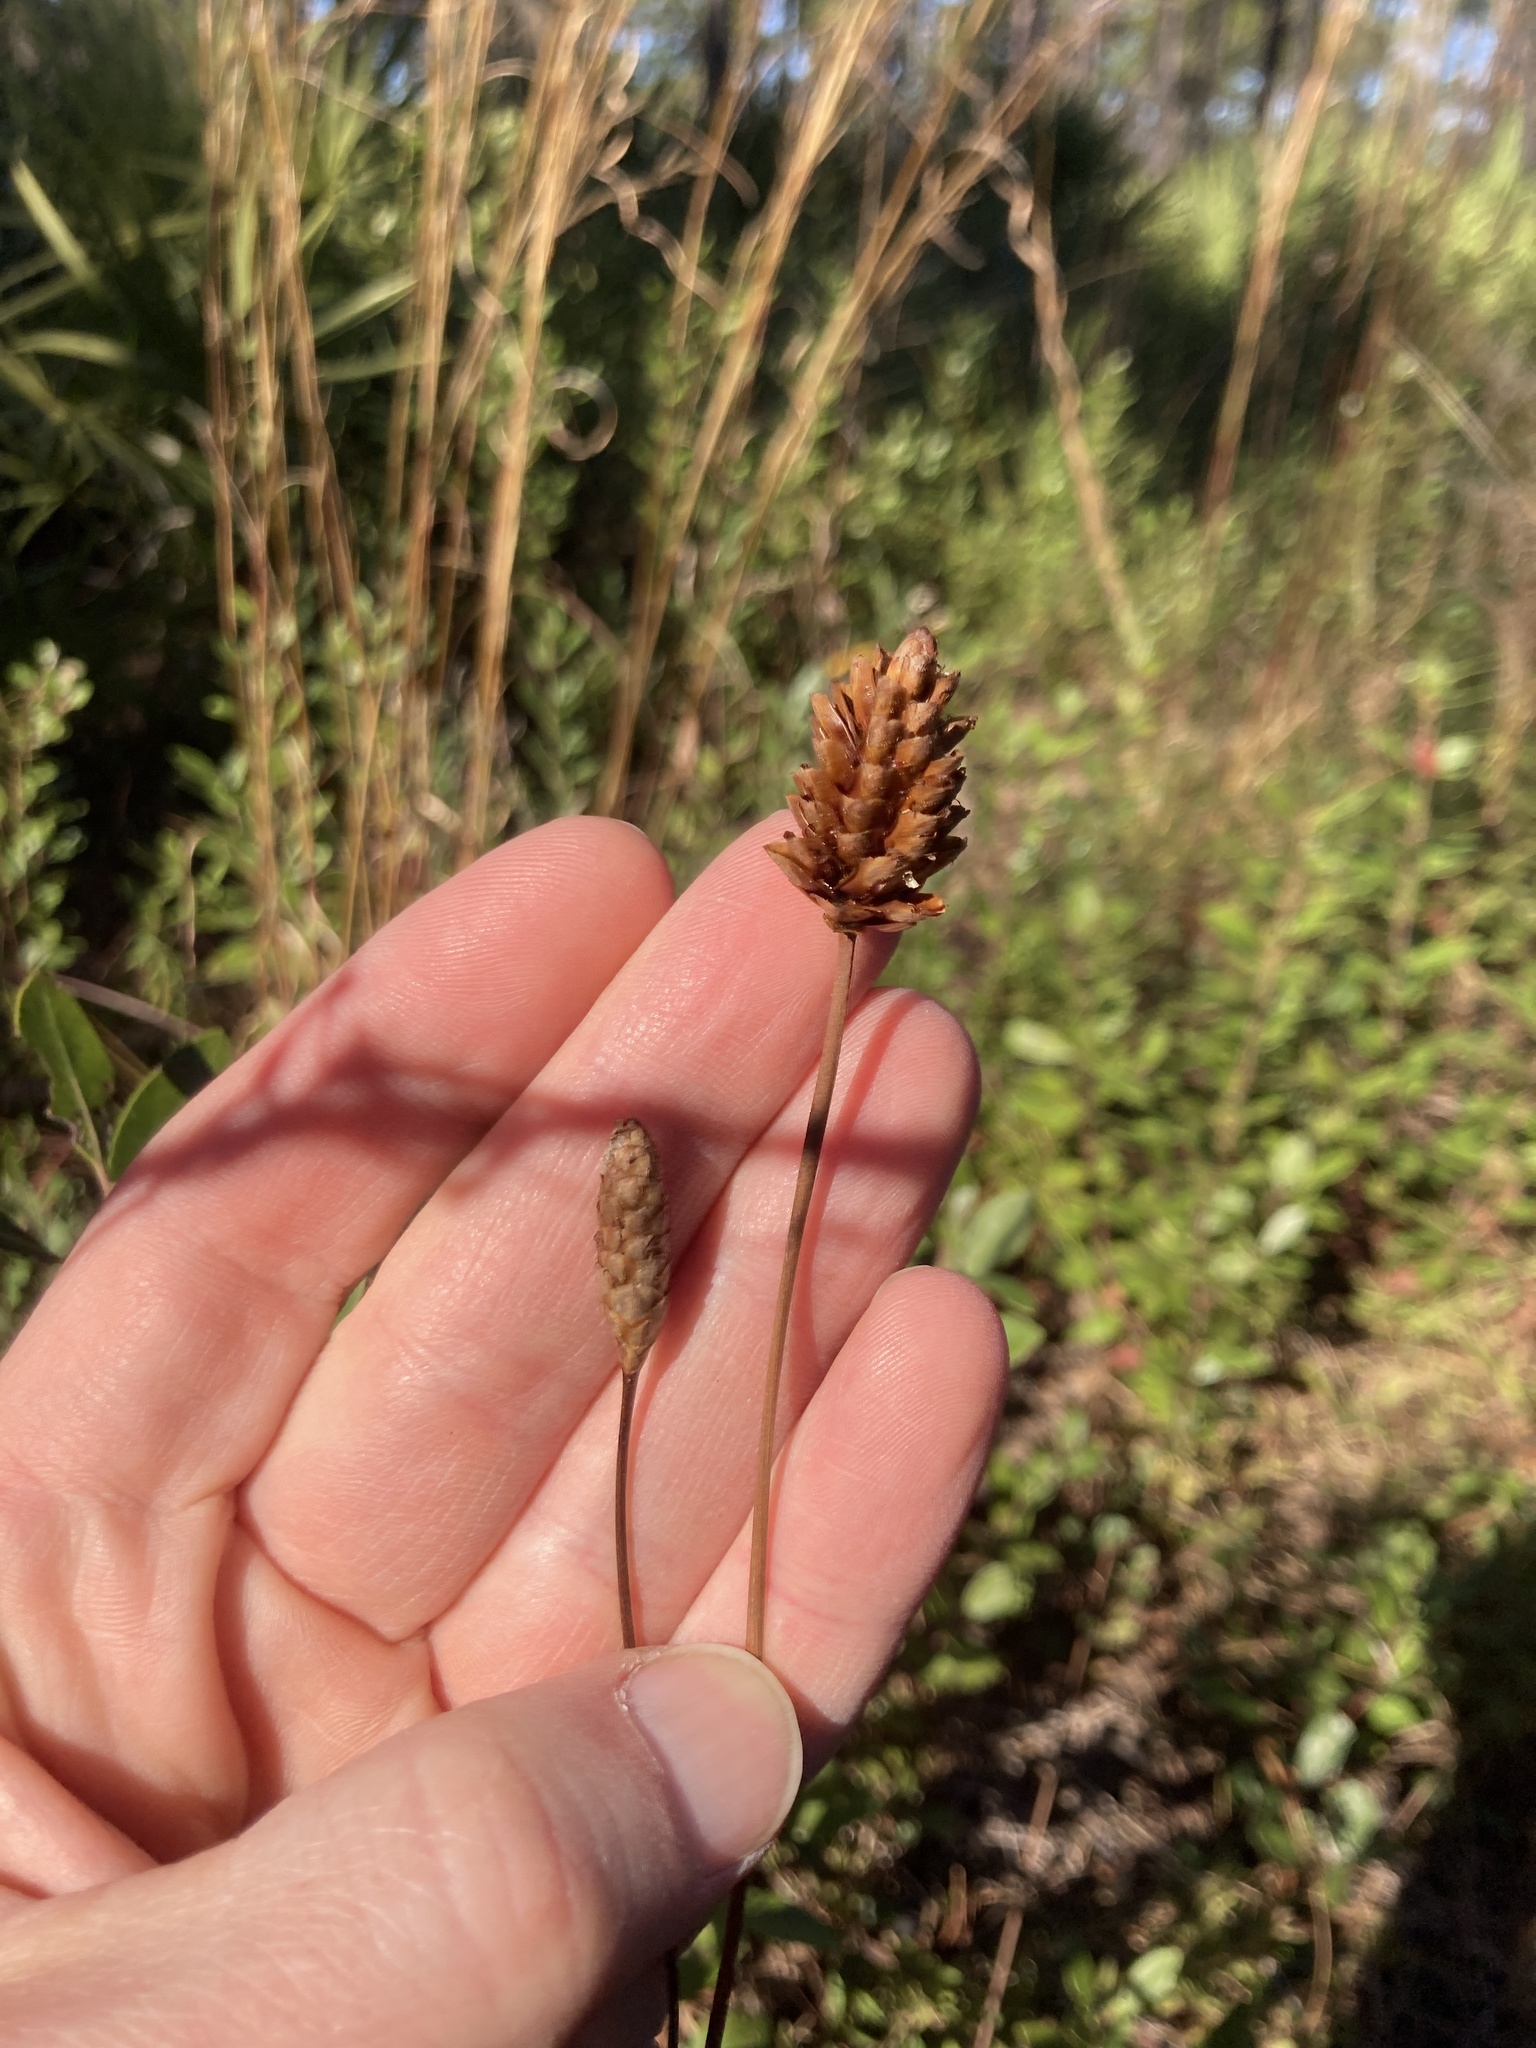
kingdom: Plantae
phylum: Tracheophyta
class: Liliopsida
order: Poales
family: Xyridaceae
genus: Xyris
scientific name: Xyris caroliniana
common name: Carolina yellow-eyed-grass
